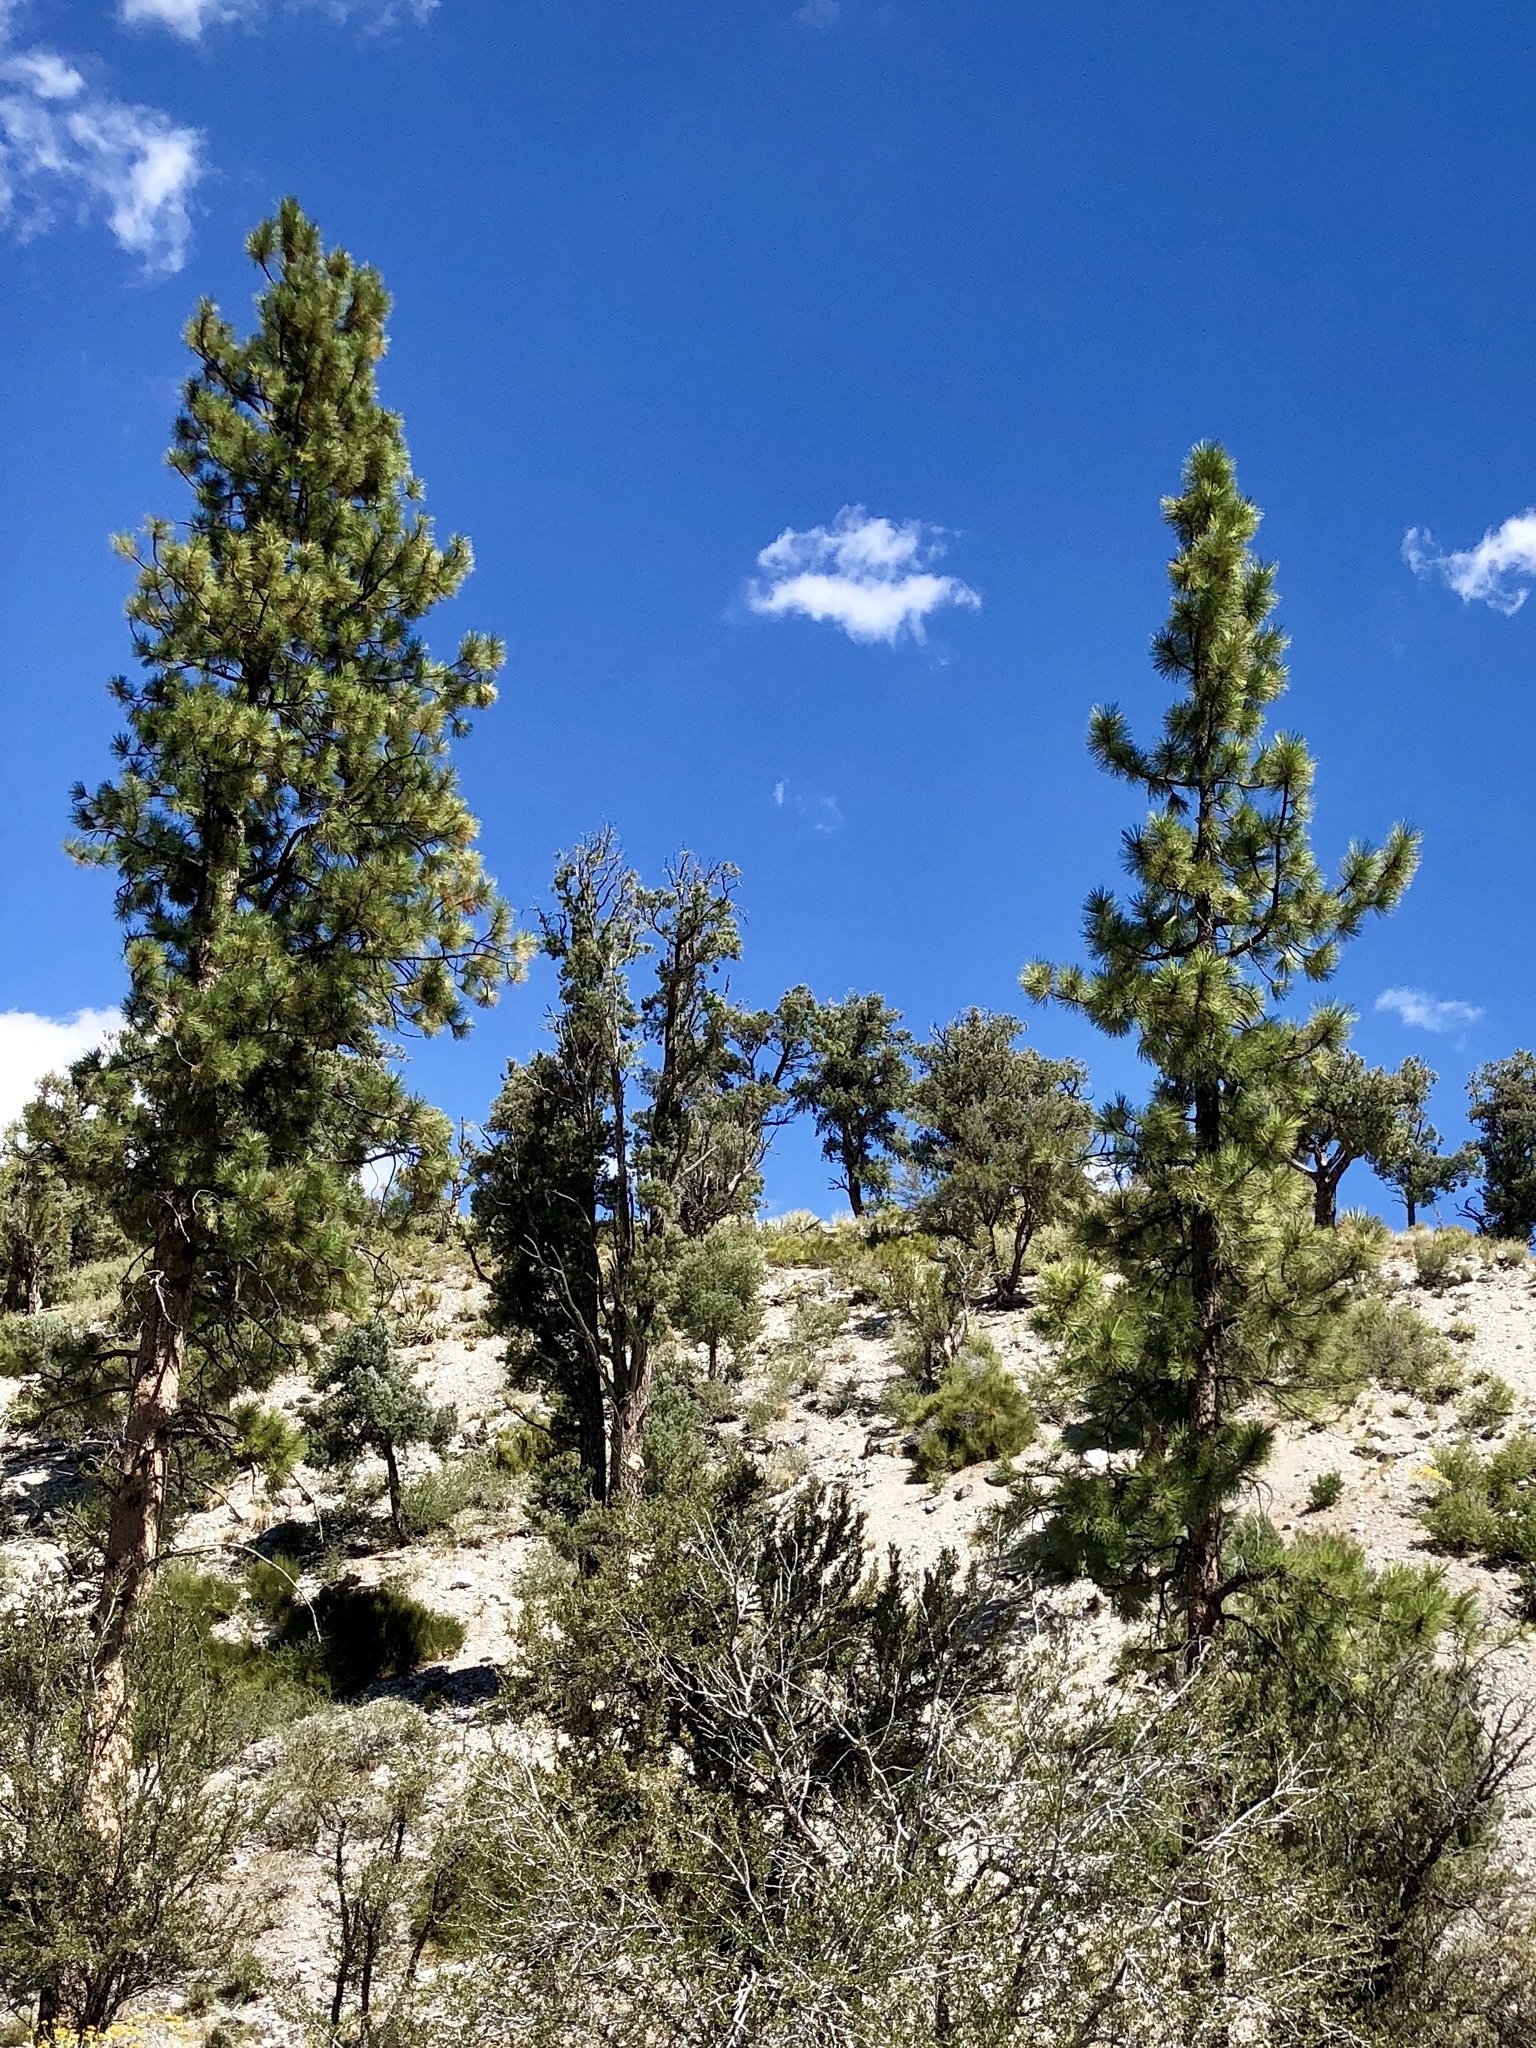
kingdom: Plantae
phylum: Tracheophyta
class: Pinopsida
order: Pinales
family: Pinaceae
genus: Pinus
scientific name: Pinus ponderosa
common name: Western yellow-pine
